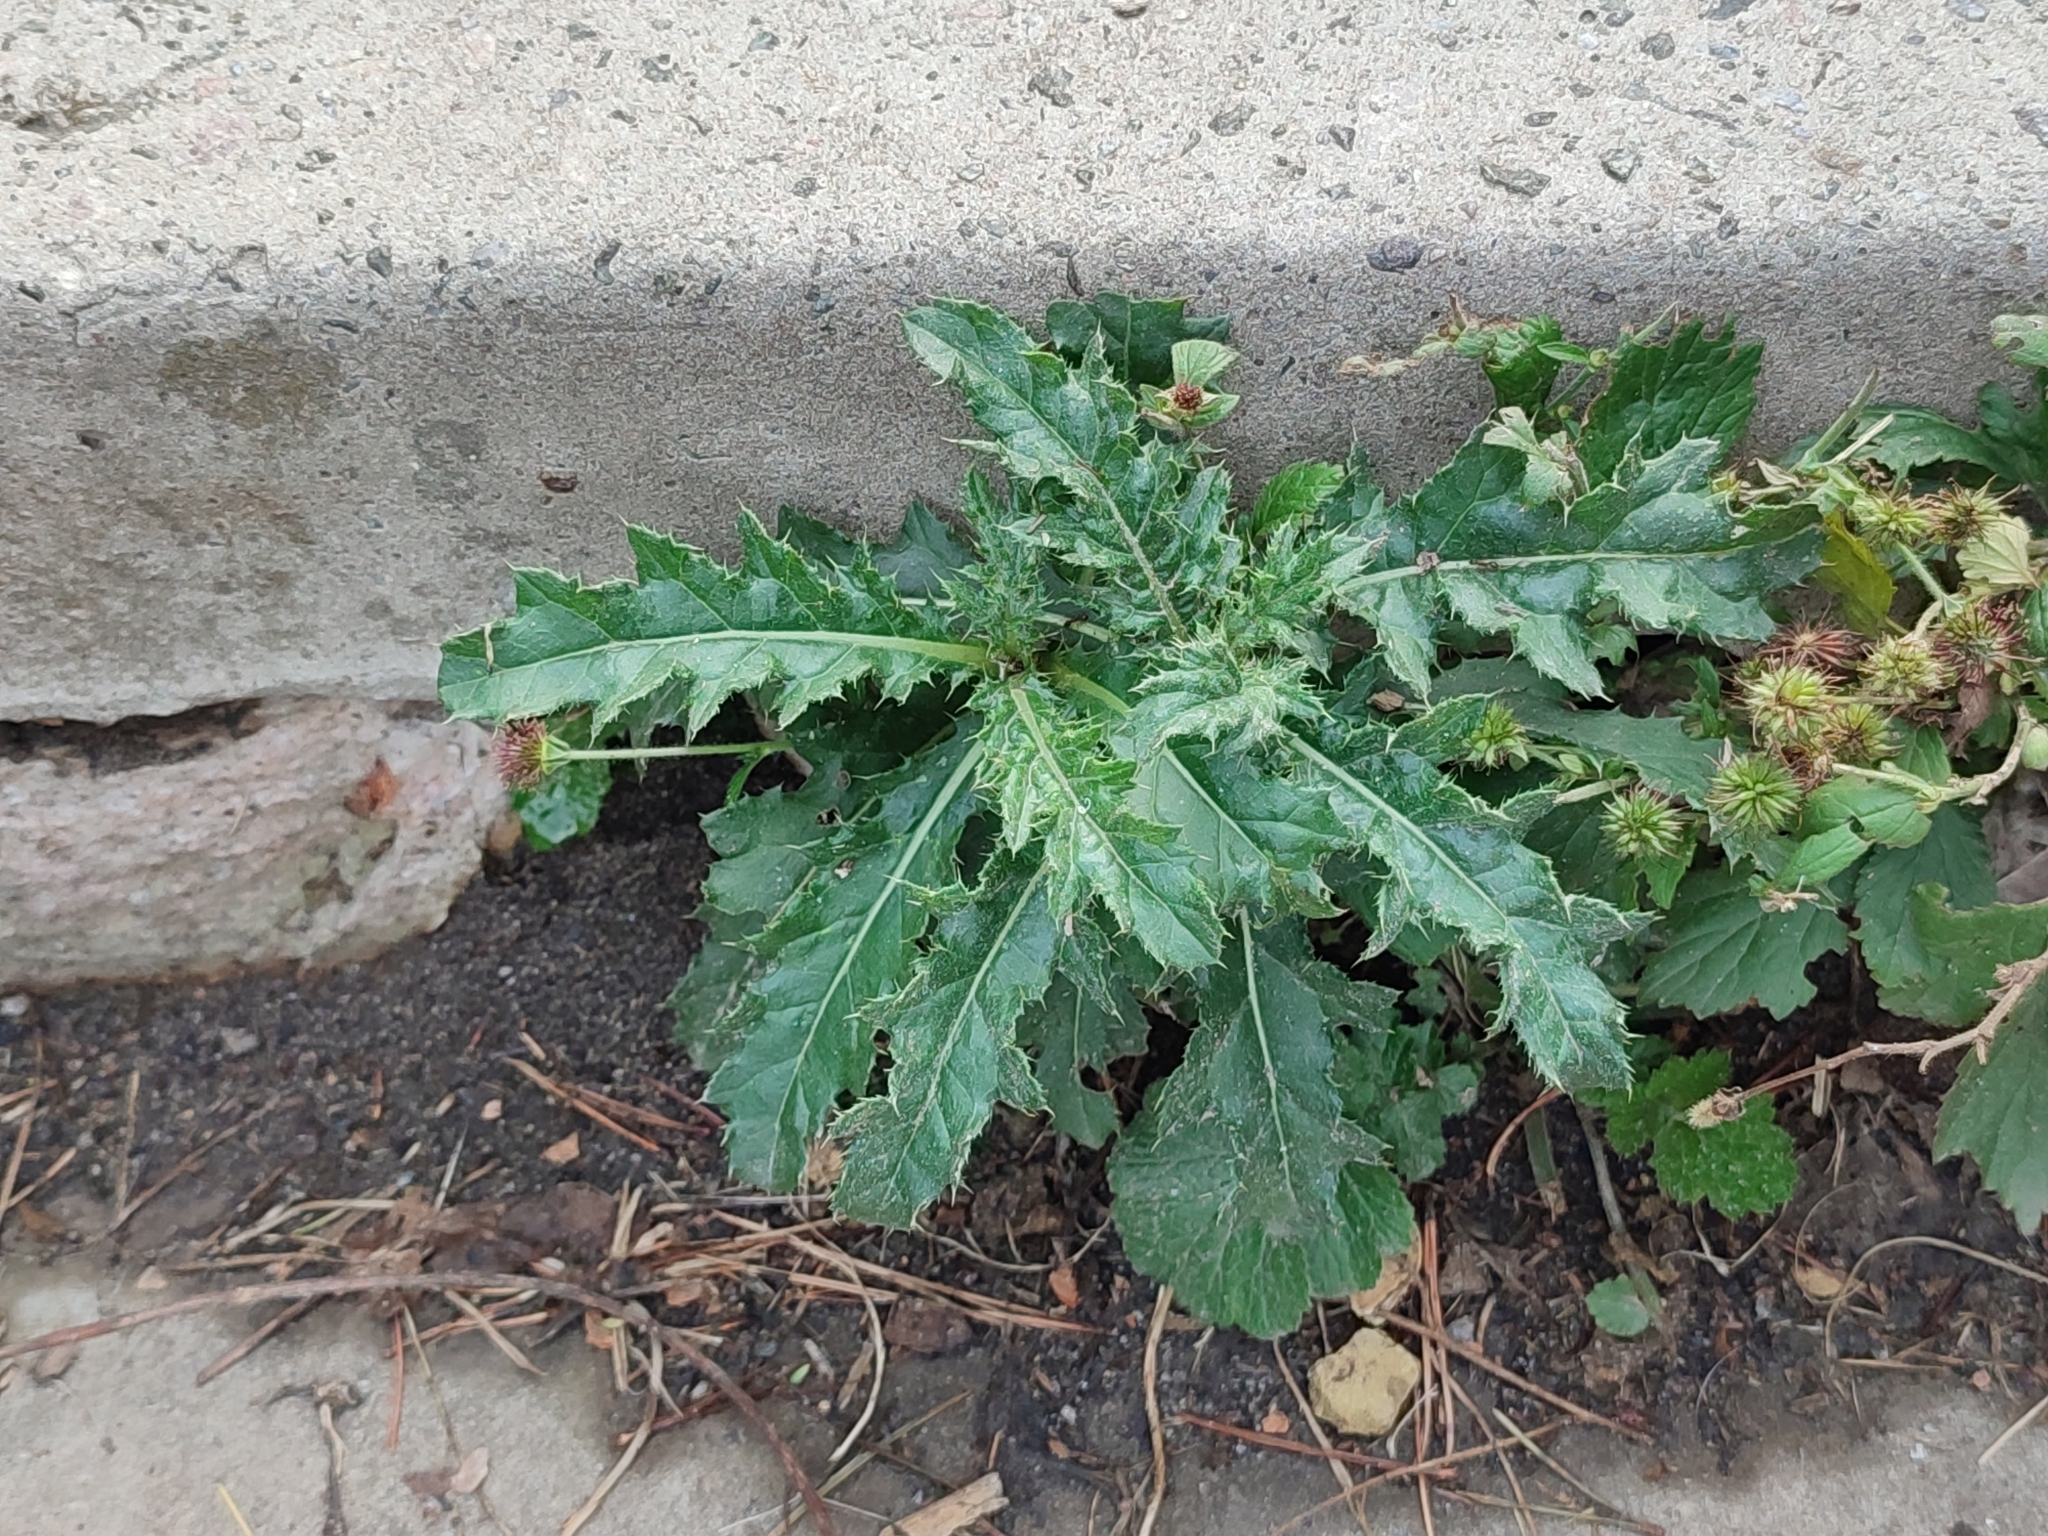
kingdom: Plantae
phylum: Tracheophyta
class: Magnoliopsida
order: Asterales
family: Asteraceae
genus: Cirsium
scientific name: Cirsium arvense
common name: Creeping thistle
